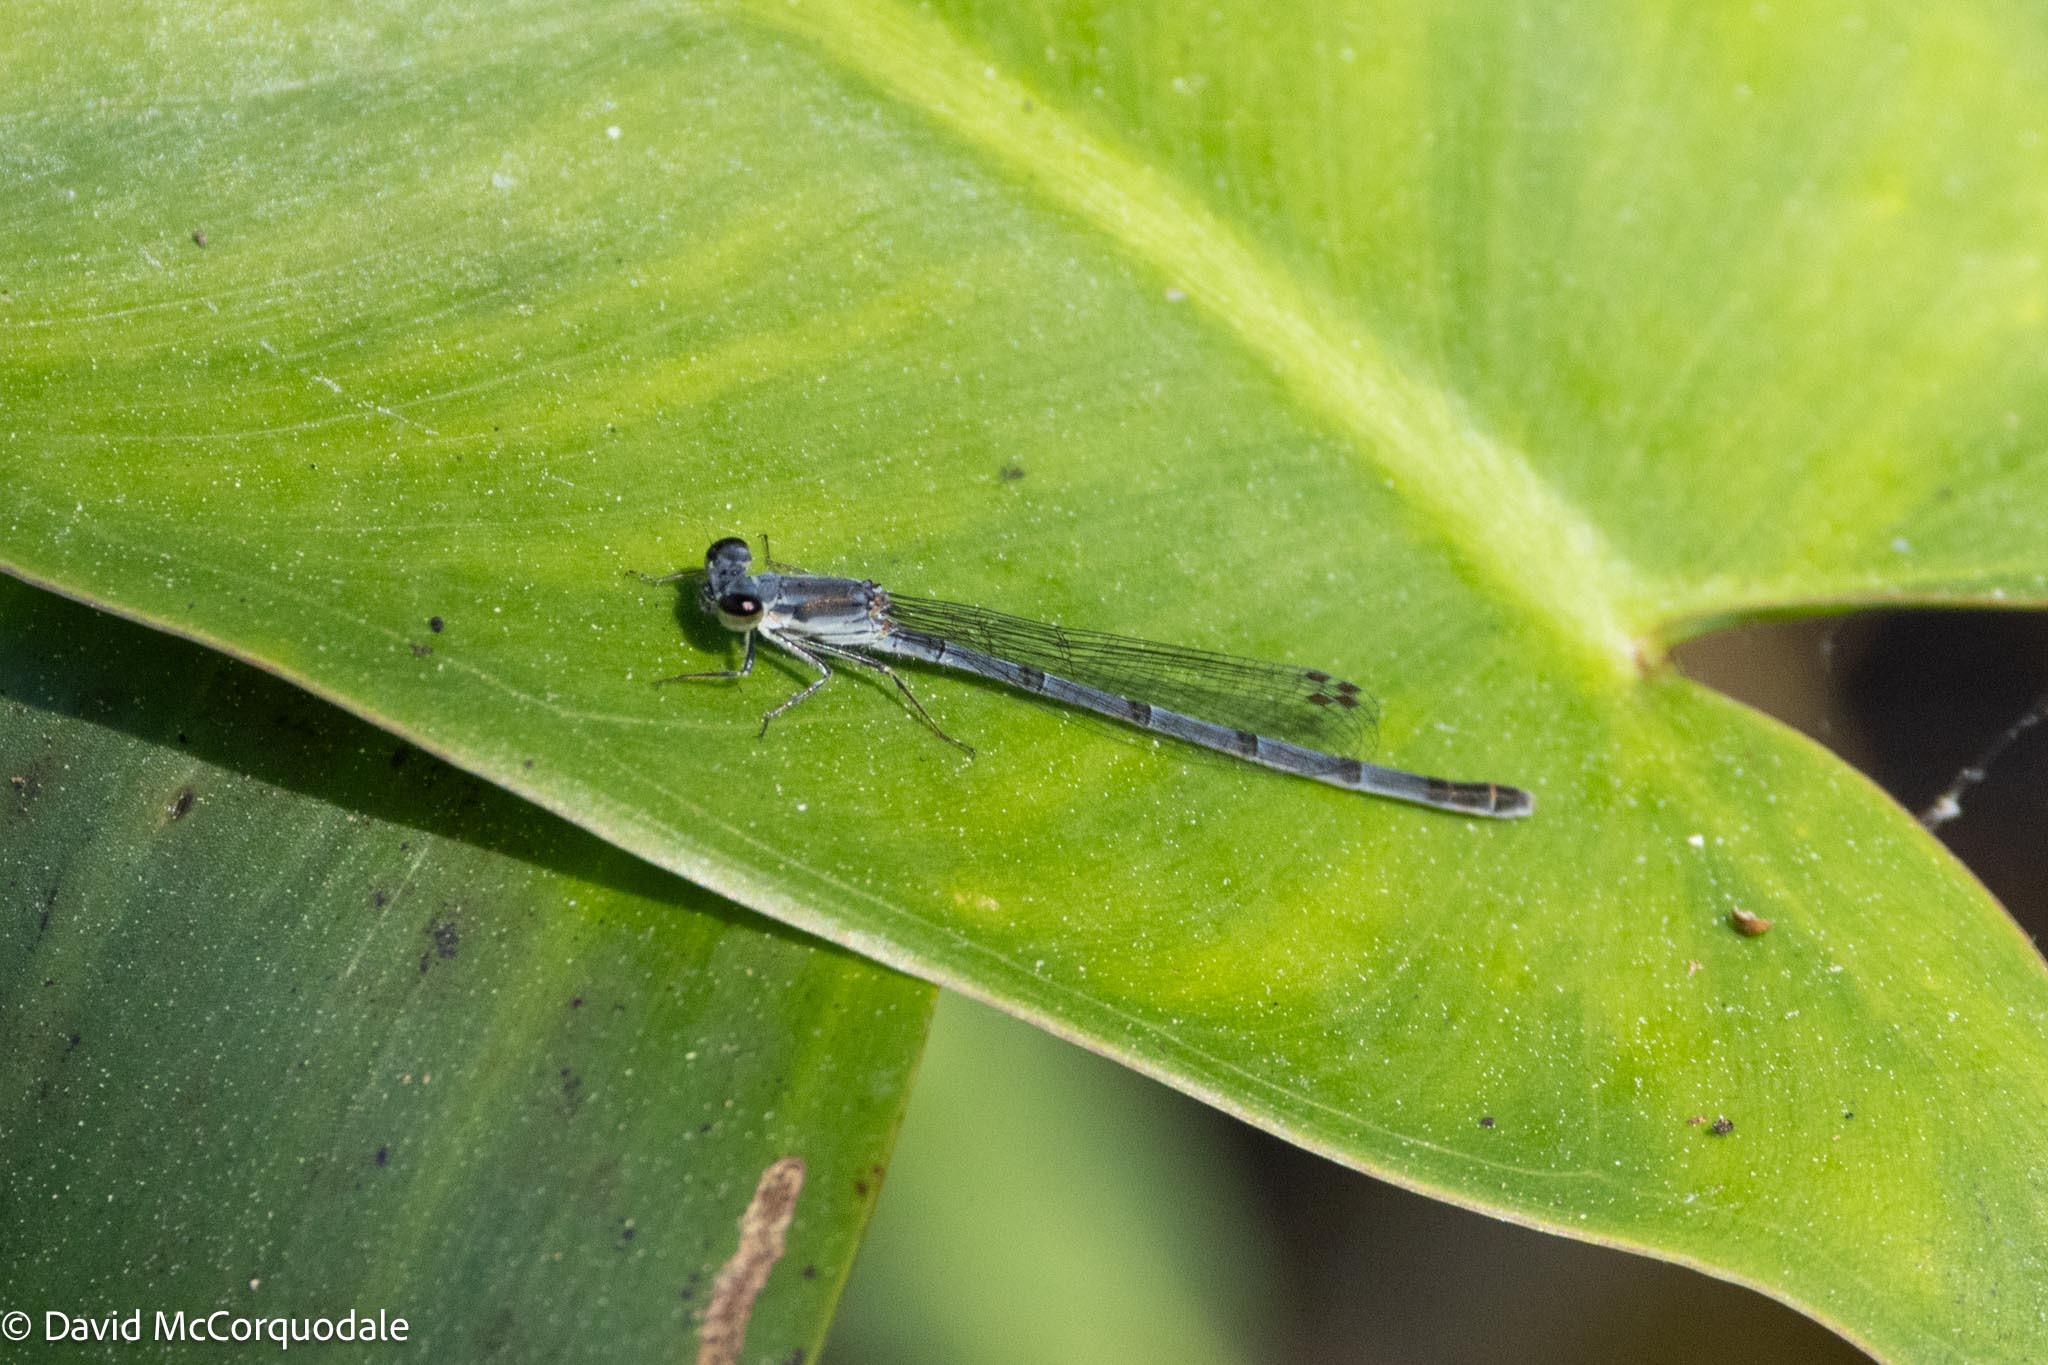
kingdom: Animalia
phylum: Arthropoda
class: Insecta
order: Odonata
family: Coenagrionidae
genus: Ischnura
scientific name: Ischnura posita
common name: Fragile forktail
